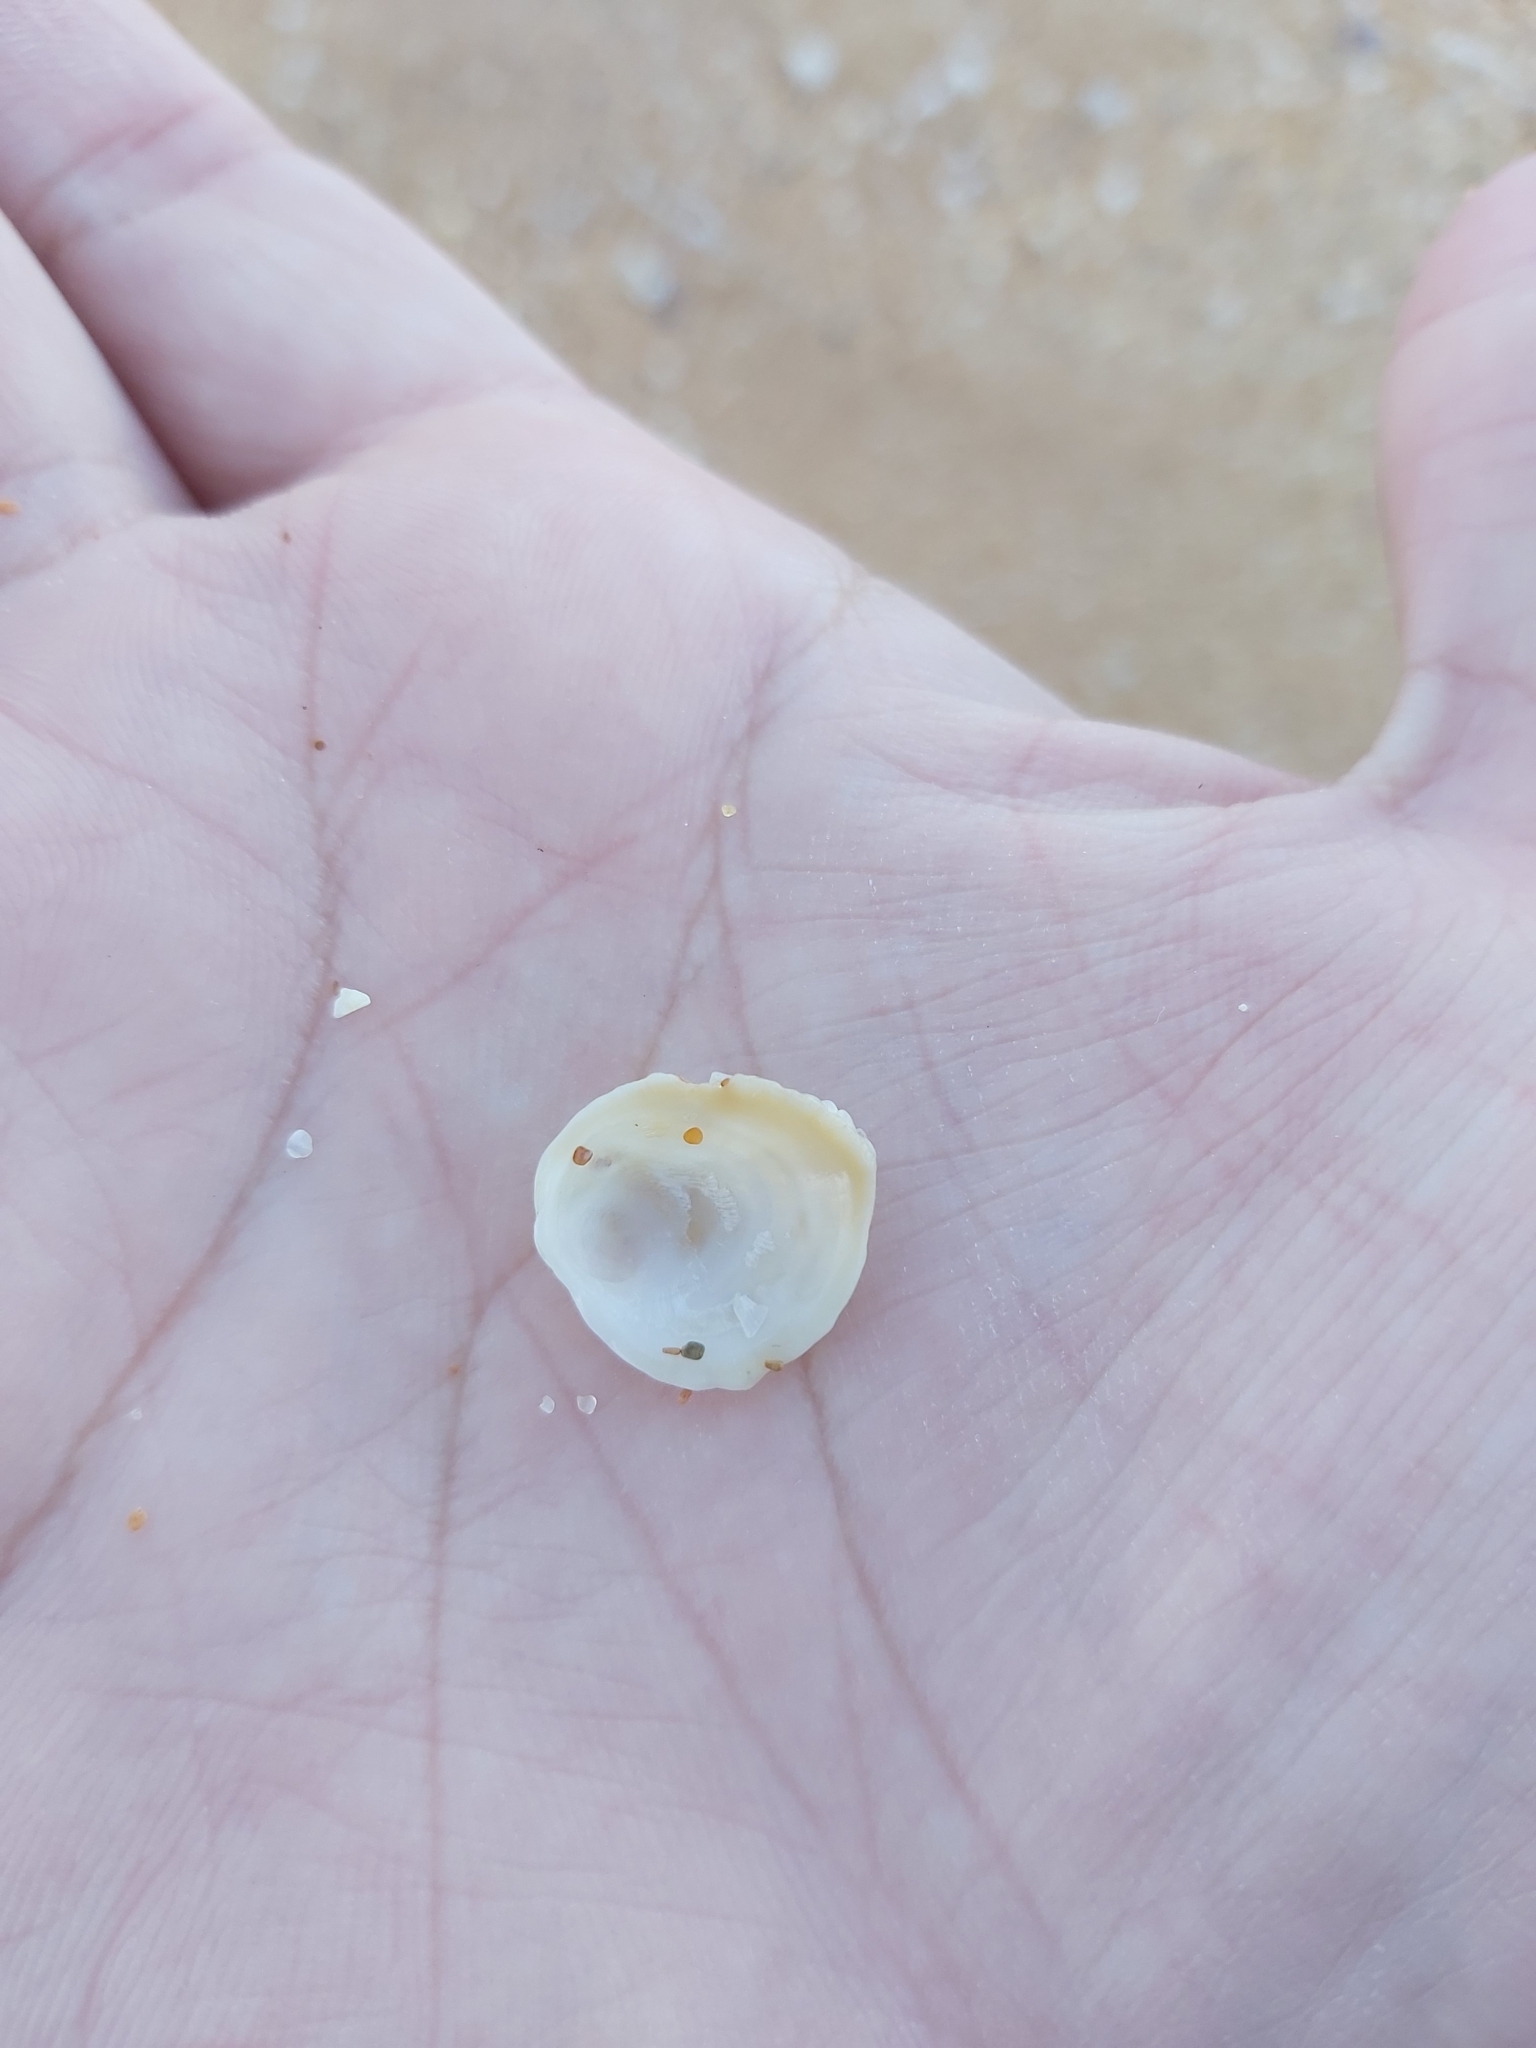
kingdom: Animalia
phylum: Mollusca
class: Bivalvia
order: Venerida
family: Chamidae
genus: Chama
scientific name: Chama asperella
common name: Mollusca
